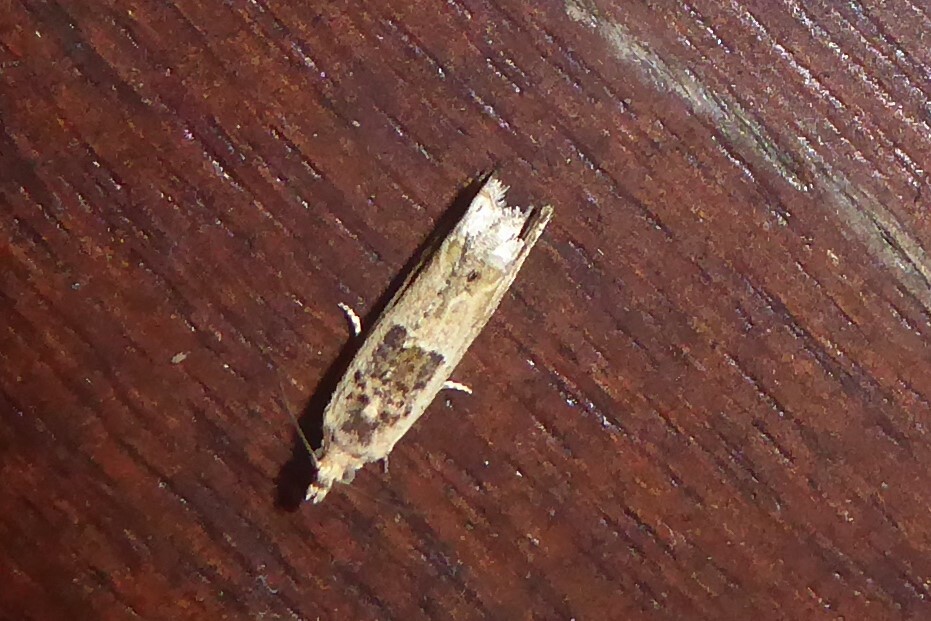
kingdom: Animalia
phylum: Arthropoda
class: Insecta
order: Lepidoptera
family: Tortricidae
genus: Crocidosema
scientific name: Crocidosema plebejana
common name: Southern bell
